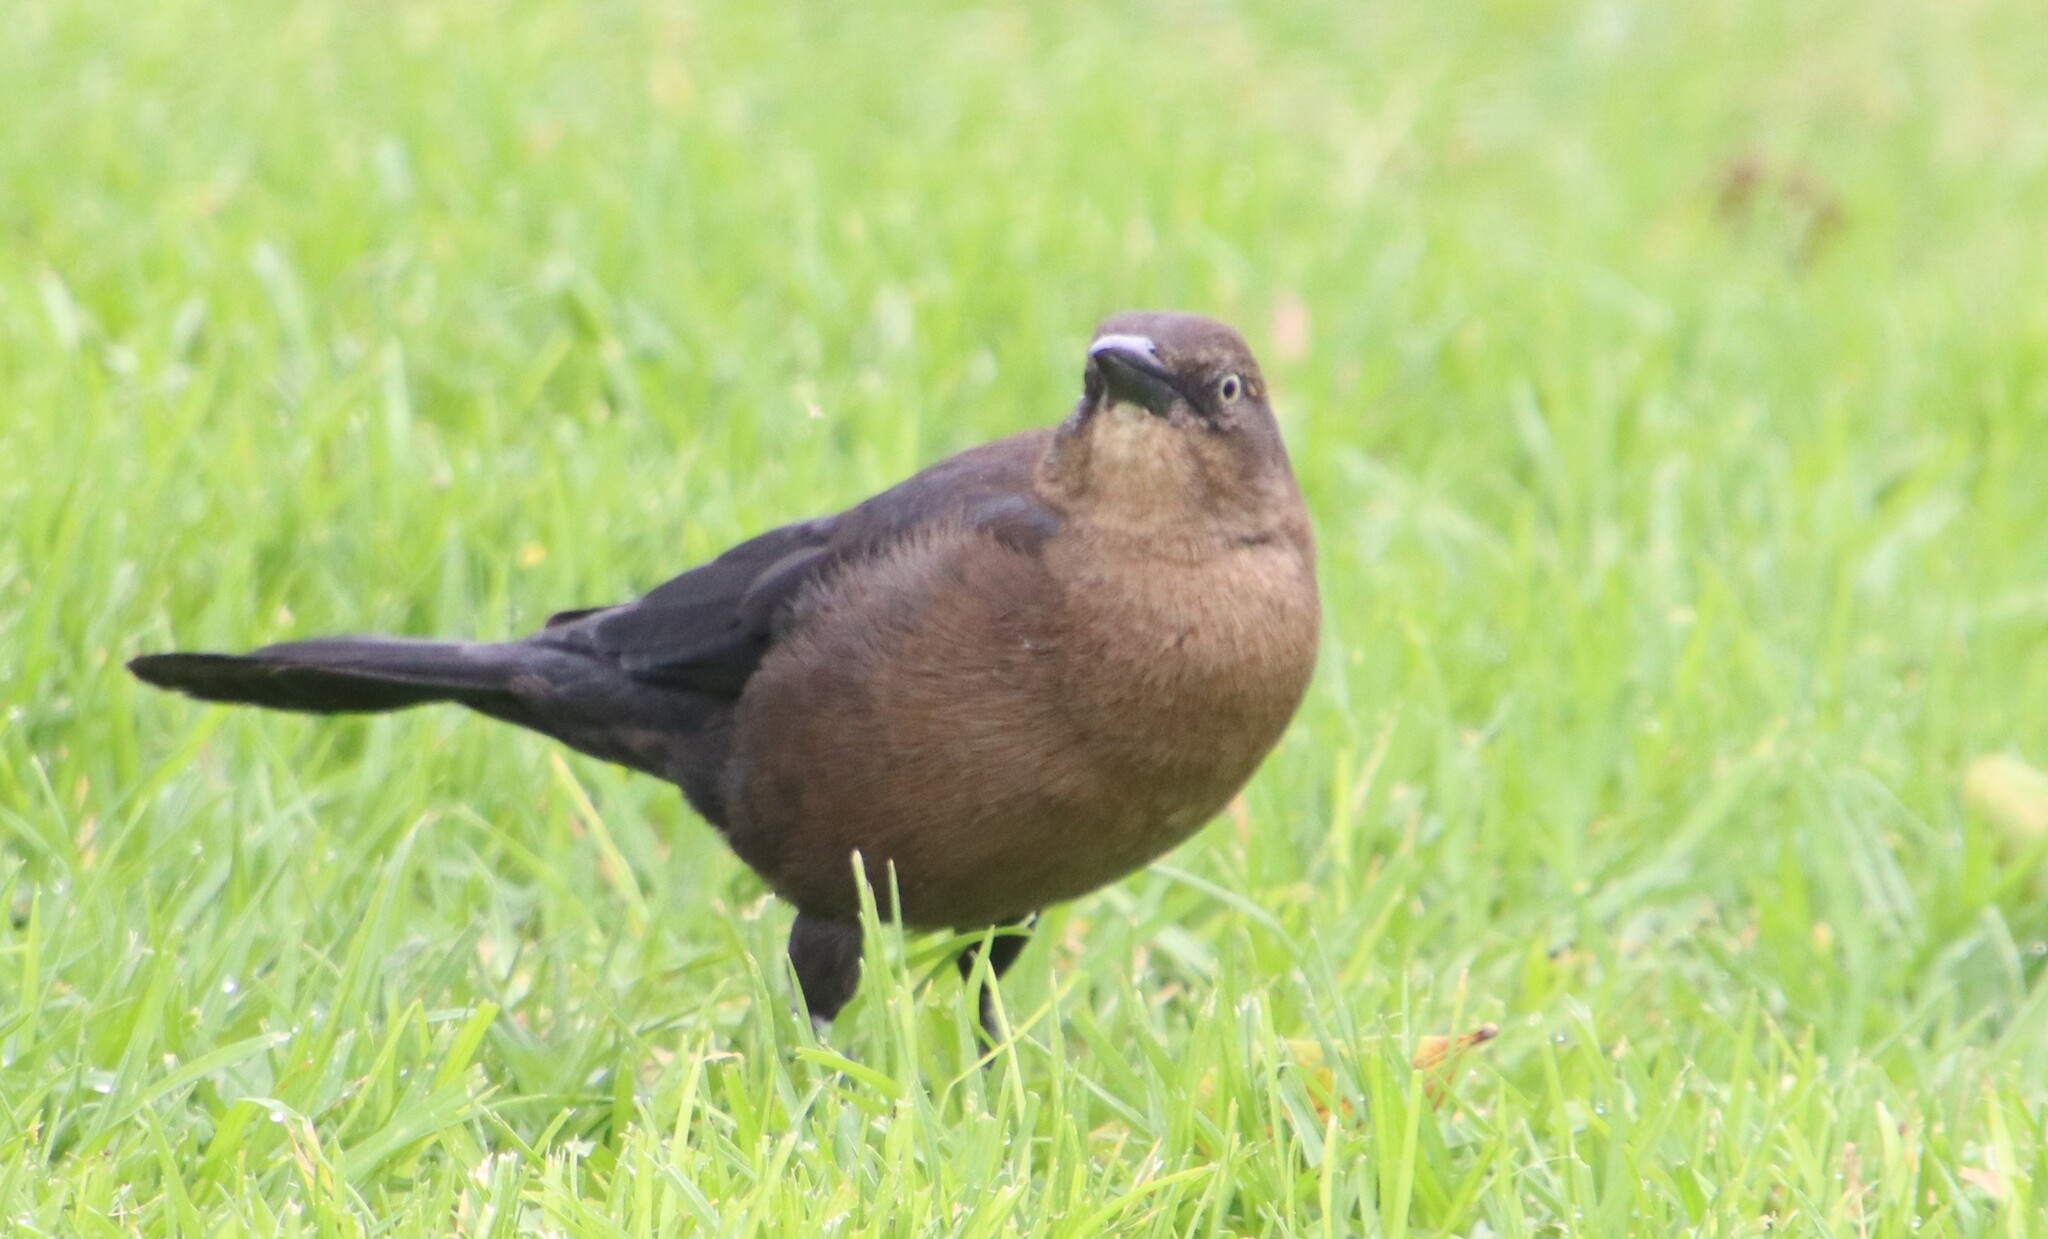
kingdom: Animalia
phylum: Chordata
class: Aves
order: Passeriformes
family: Icteridae
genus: Quiscalus
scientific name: Quiscalus mexicanus
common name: Great-tailed grackle
